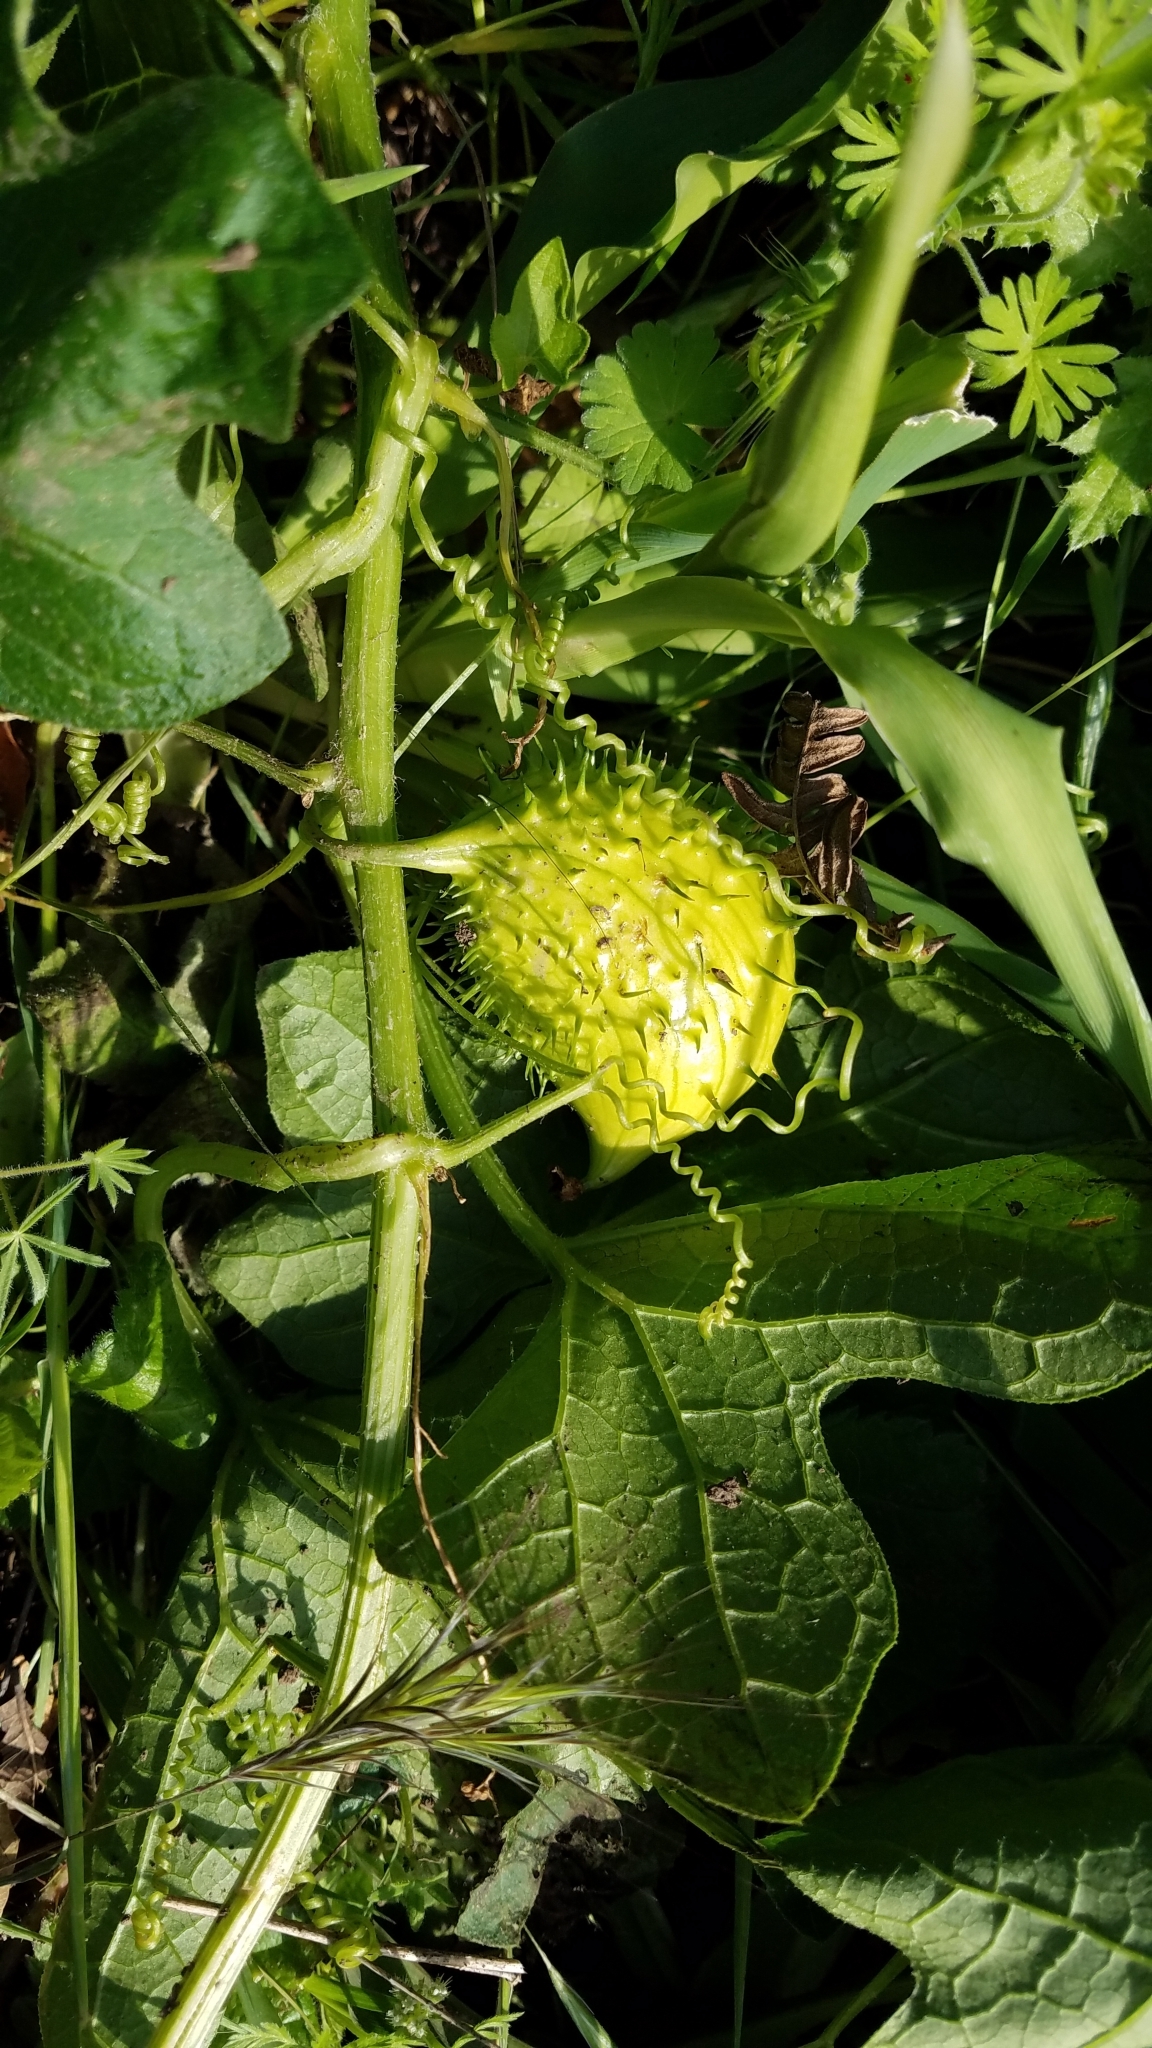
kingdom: Plantae
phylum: Tracheophyta
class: Magnoliopsida
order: Cucurbitales
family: Cucurbitaceae
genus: Marah
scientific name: Marah oregana
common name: Coastal manroot
